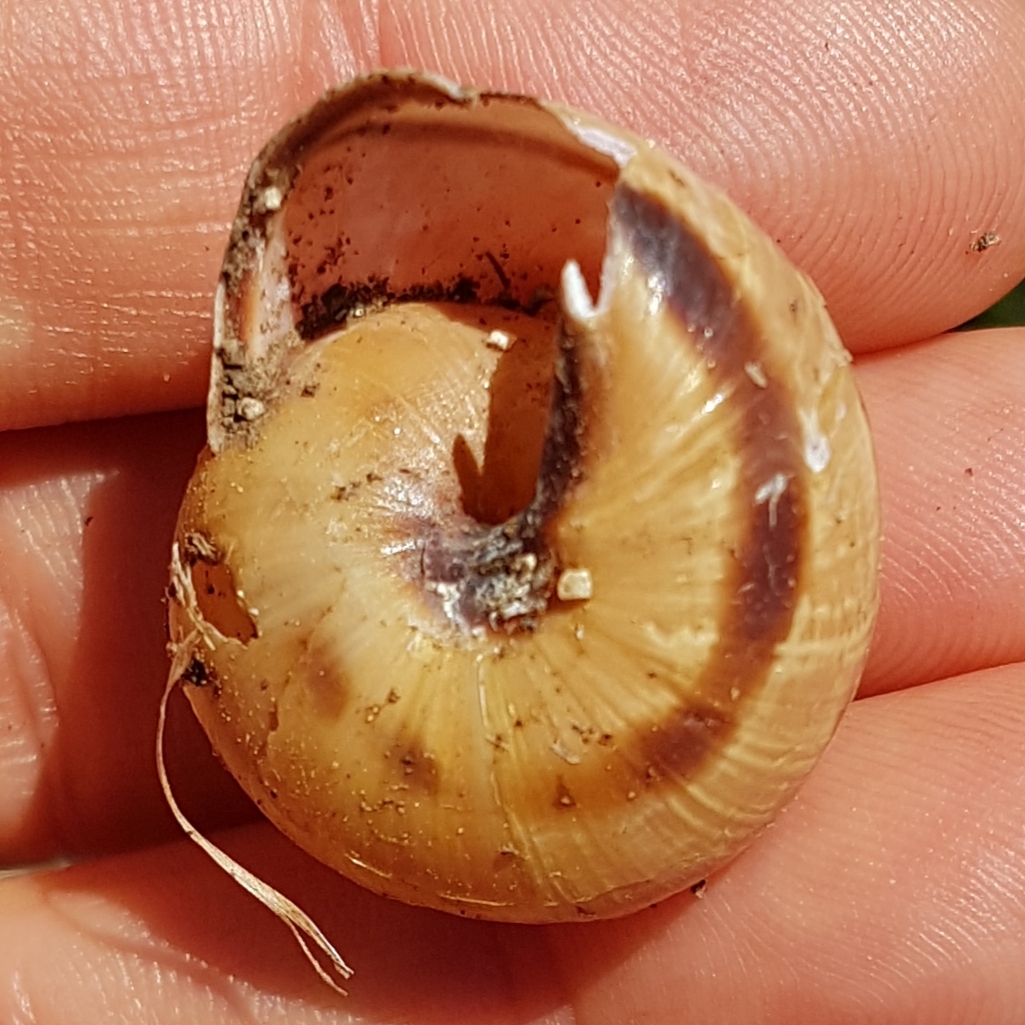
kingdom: Animalia
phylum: Mollusca
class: Gastropoda
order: Stylommatophora
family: Helicidae
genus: Cepaea
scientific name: Cepaea nemoralis
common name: Grovesnail
